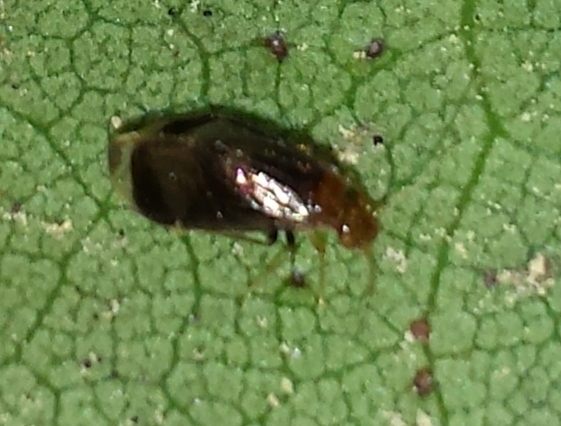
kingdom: Animalia
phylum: Arthropoda
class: Insecta
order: Psocodea
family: Amphipsocidae
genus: Polypsocus
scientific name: Polypsocus corruptus
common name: Corrupt barklouse
